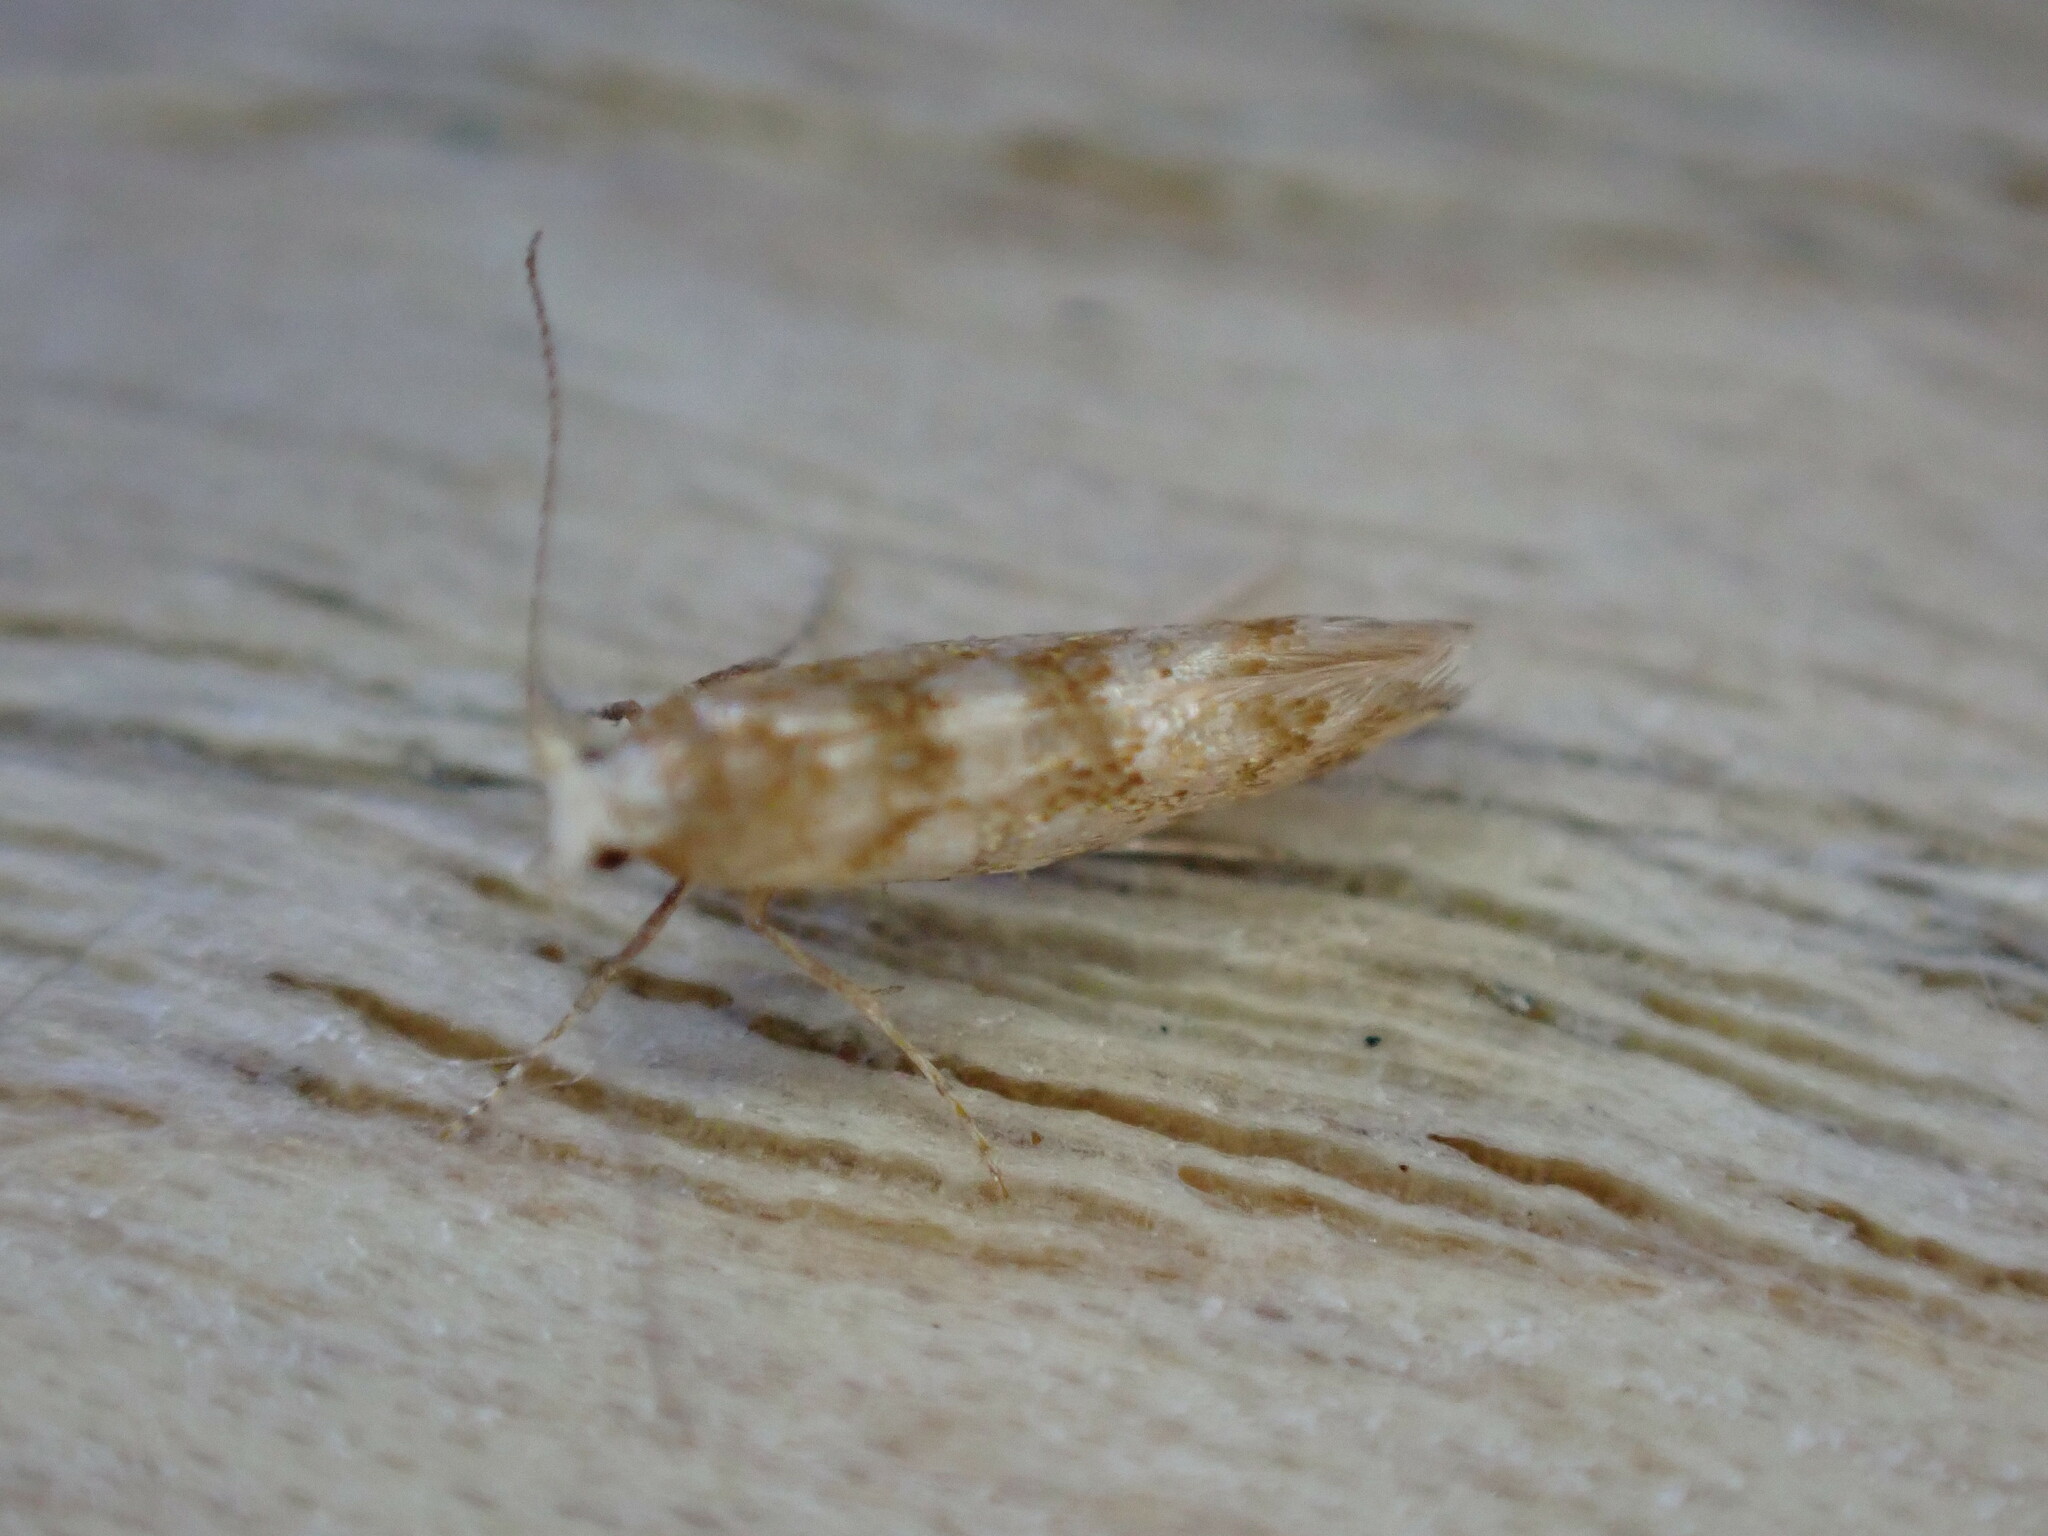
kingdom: Animalia
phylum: Arthropoda
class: Insecta
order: Lepidoptera
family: Argyresthiidae
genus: Argyresthia
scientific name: Argyresthia cupressella
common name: Cypress tip moth
